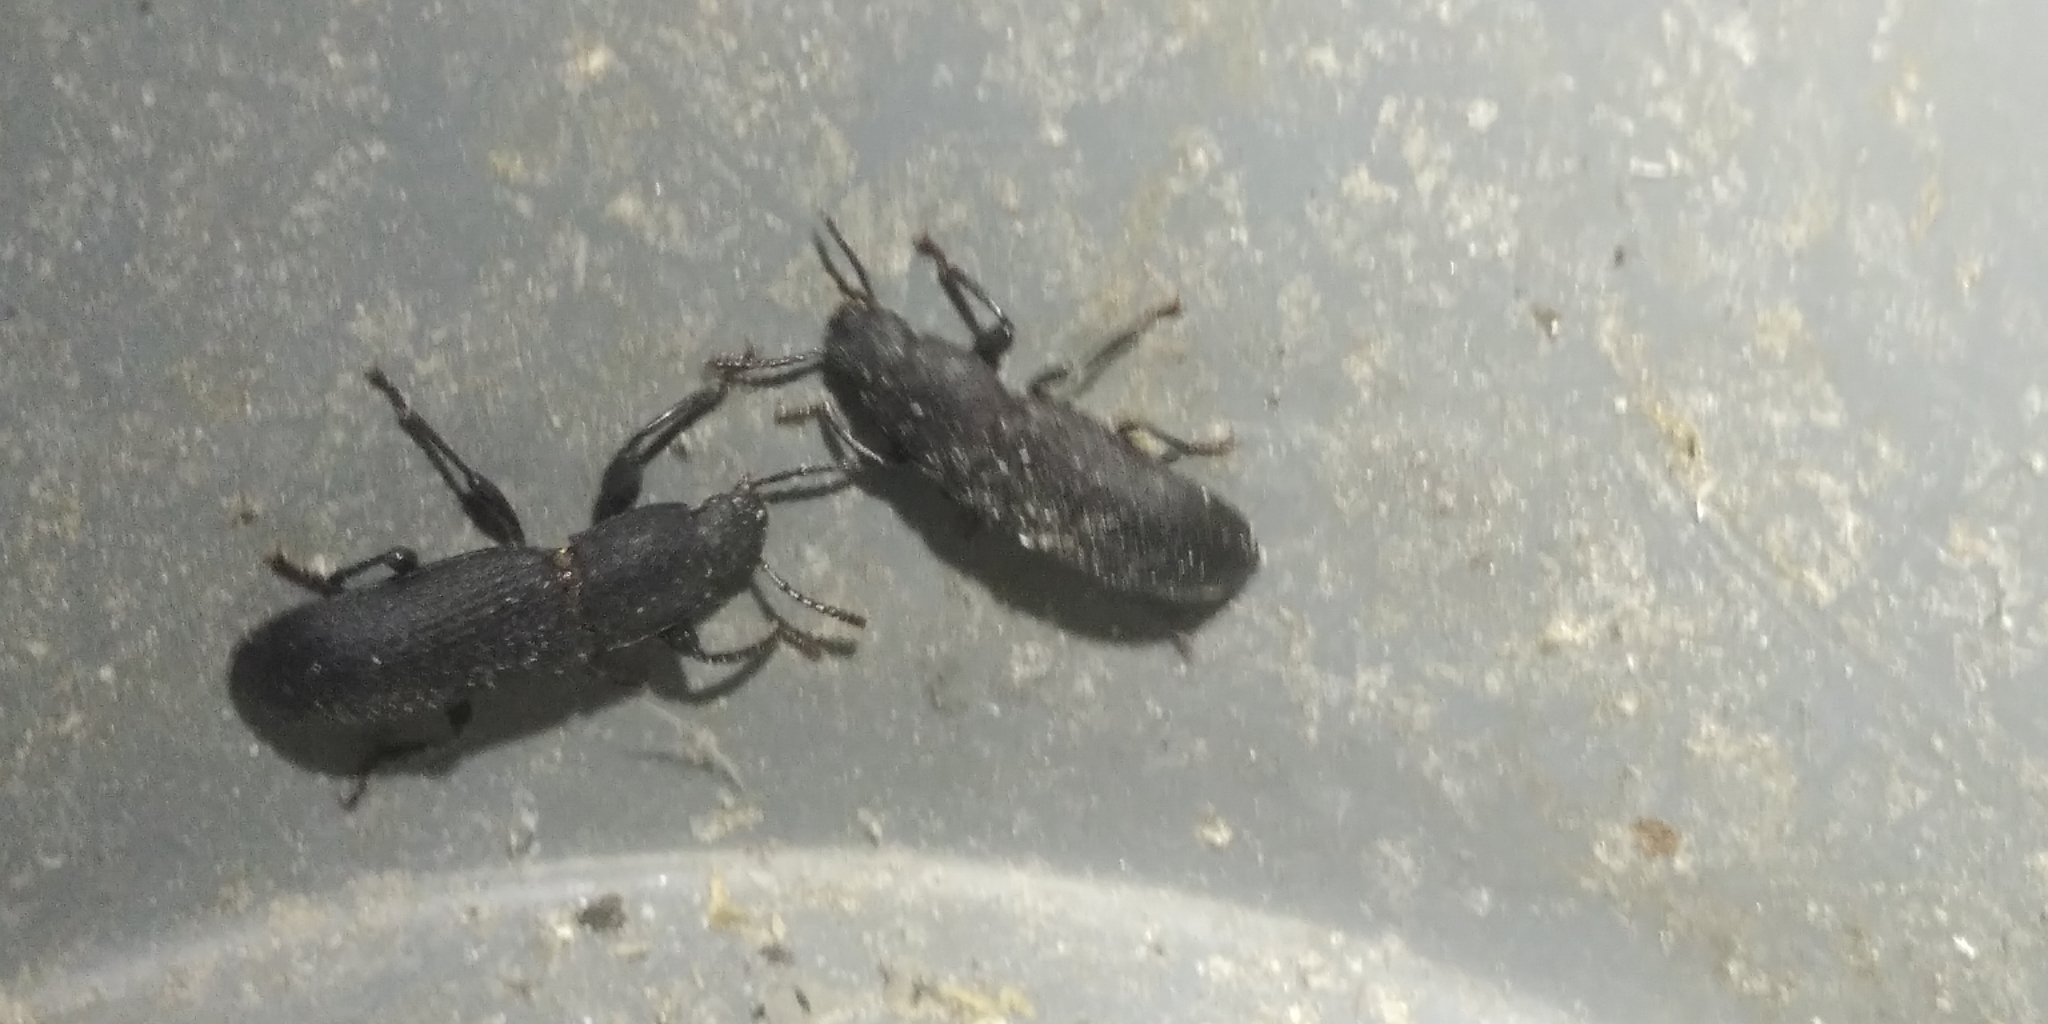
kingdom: Animalia
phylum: Arthropoda
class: Insecta
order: Coleoptera
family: Tenebrionidae
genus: Tenebrio
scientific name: Tenebrio obscurus
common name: Dark mealworm beetle
